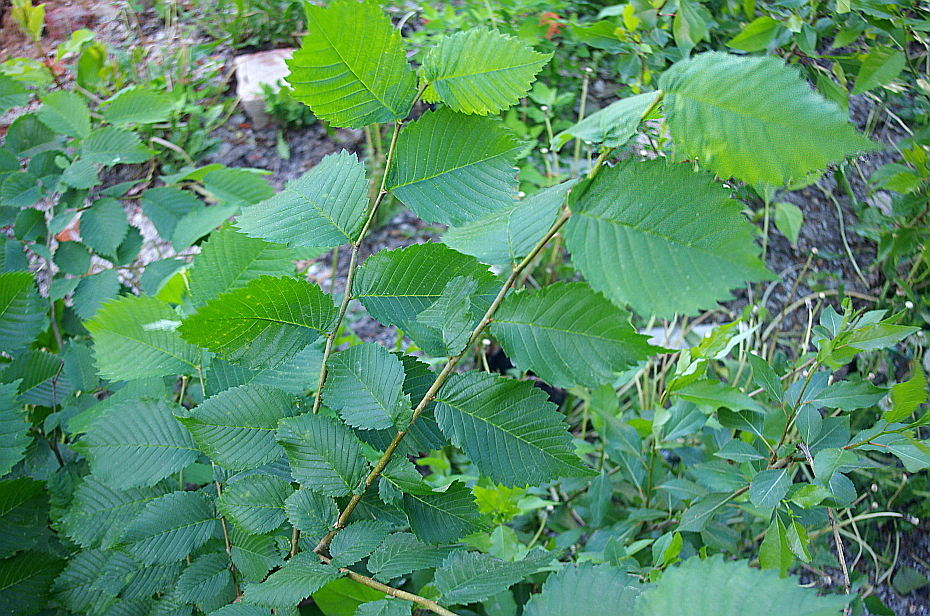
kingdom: Plantae
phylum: Tracheophyta
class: Magnoliopsida
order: Rosales
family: Ulmaceae
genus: Ulmus
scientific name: Ulmus laevis
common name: European white-elm
